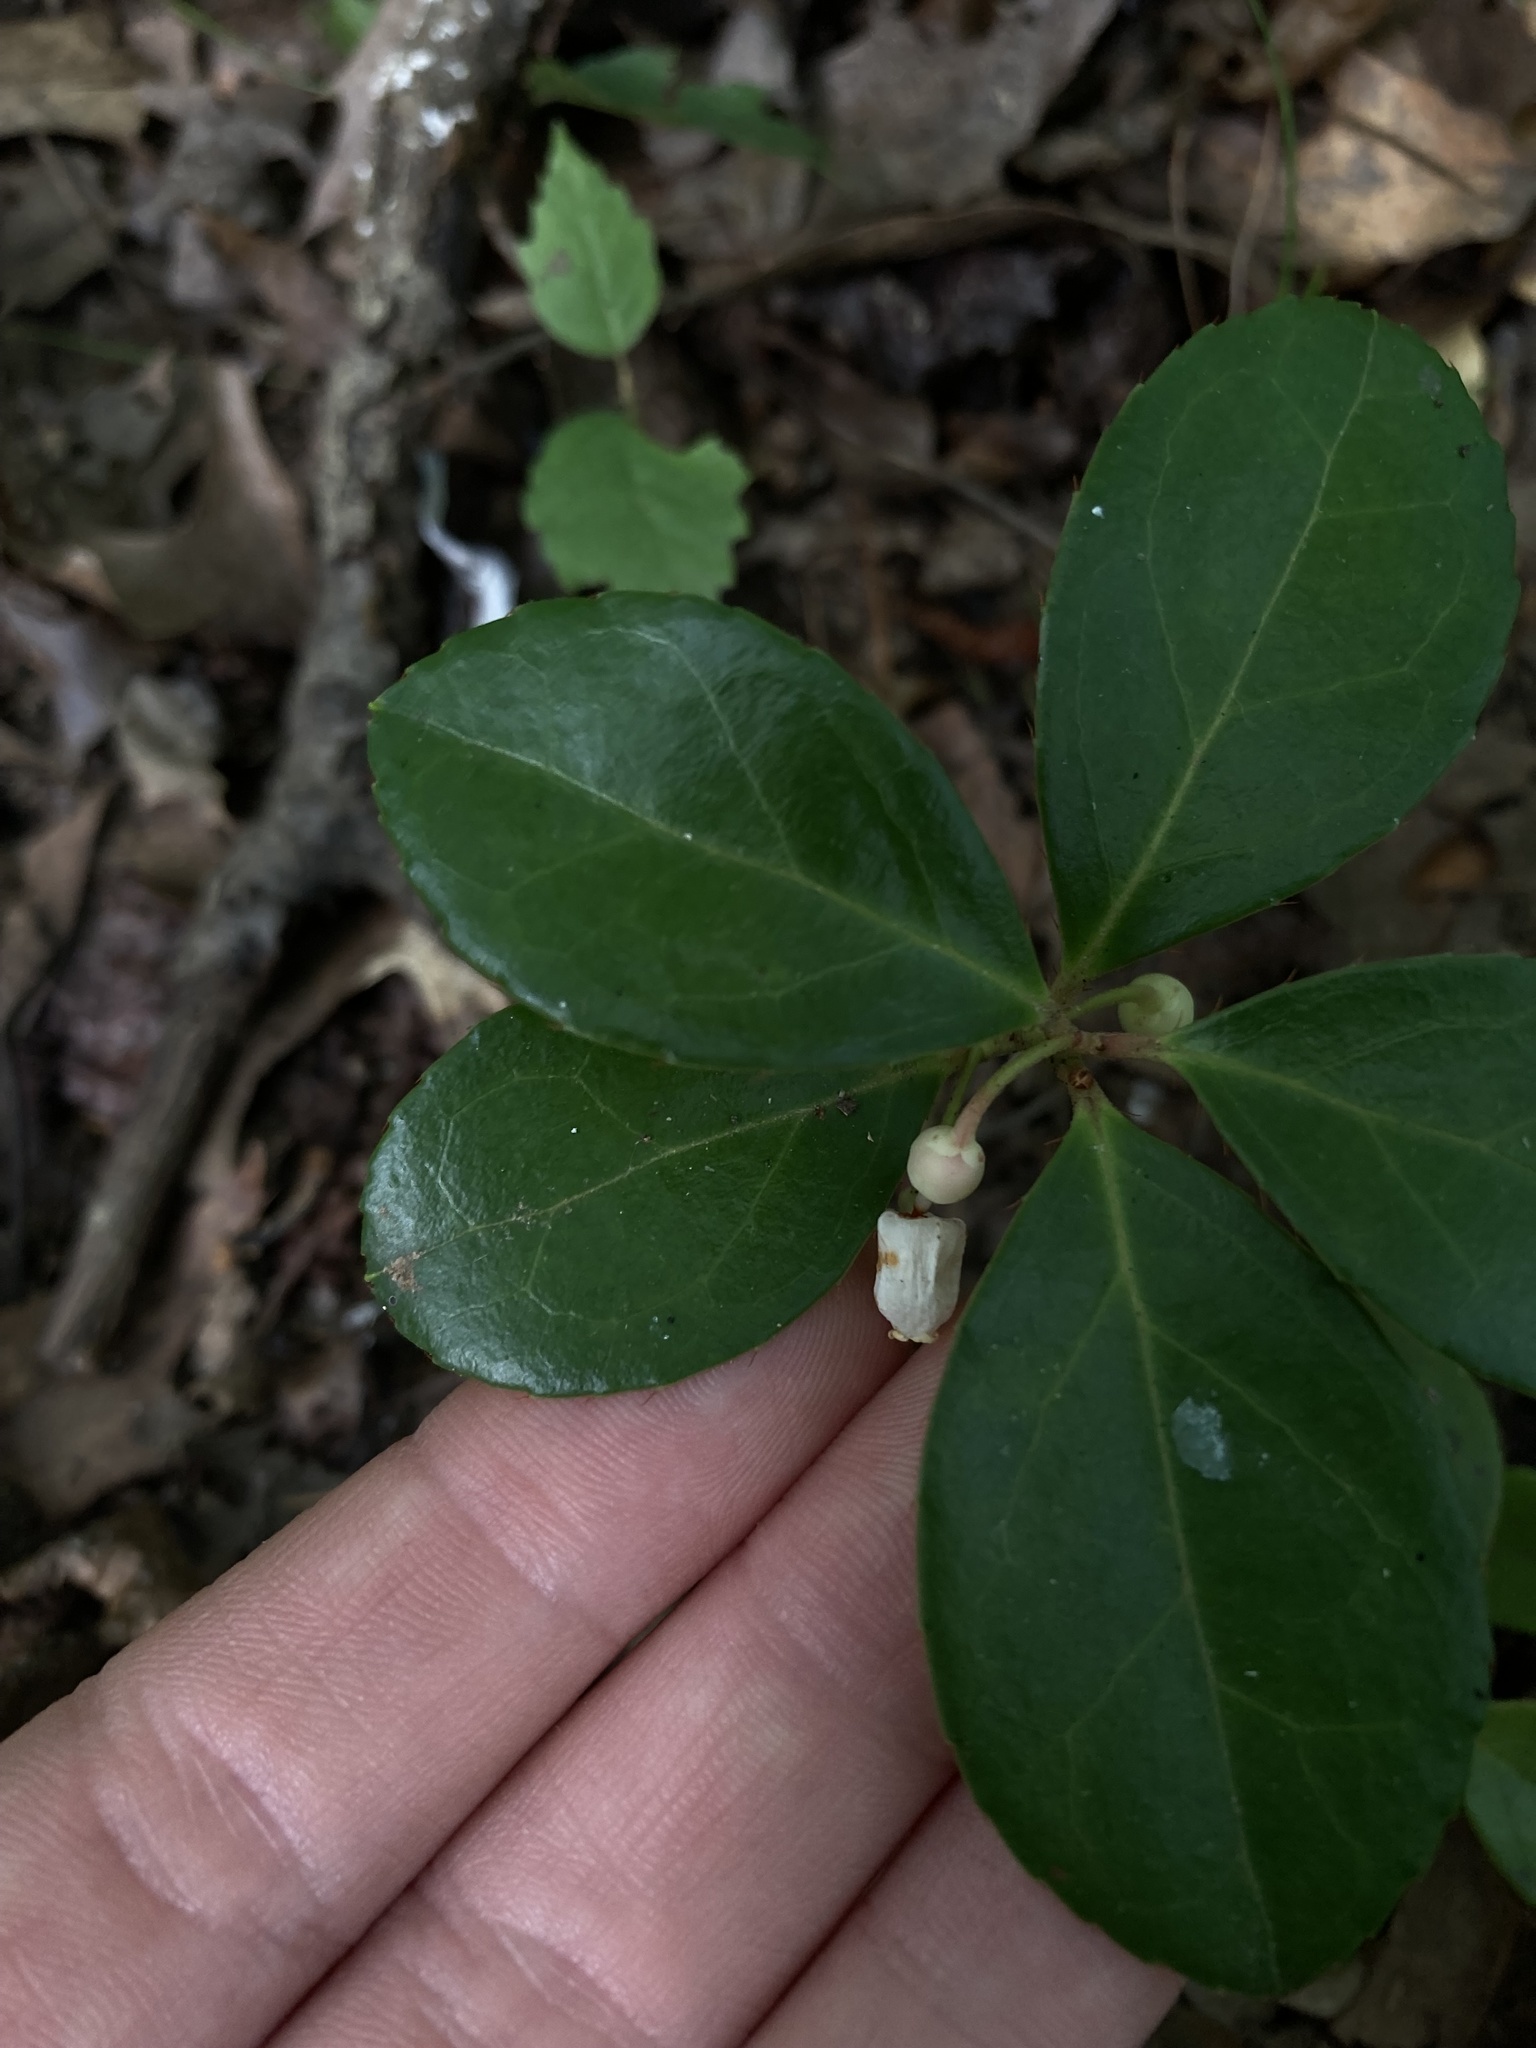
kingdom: Plantae
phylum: Tracheophyta
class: Magnoliopsida
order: Ericales
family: Ericaceae
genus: Gaultheria
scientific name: Gaultheria procumbens
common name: Checkerberry
